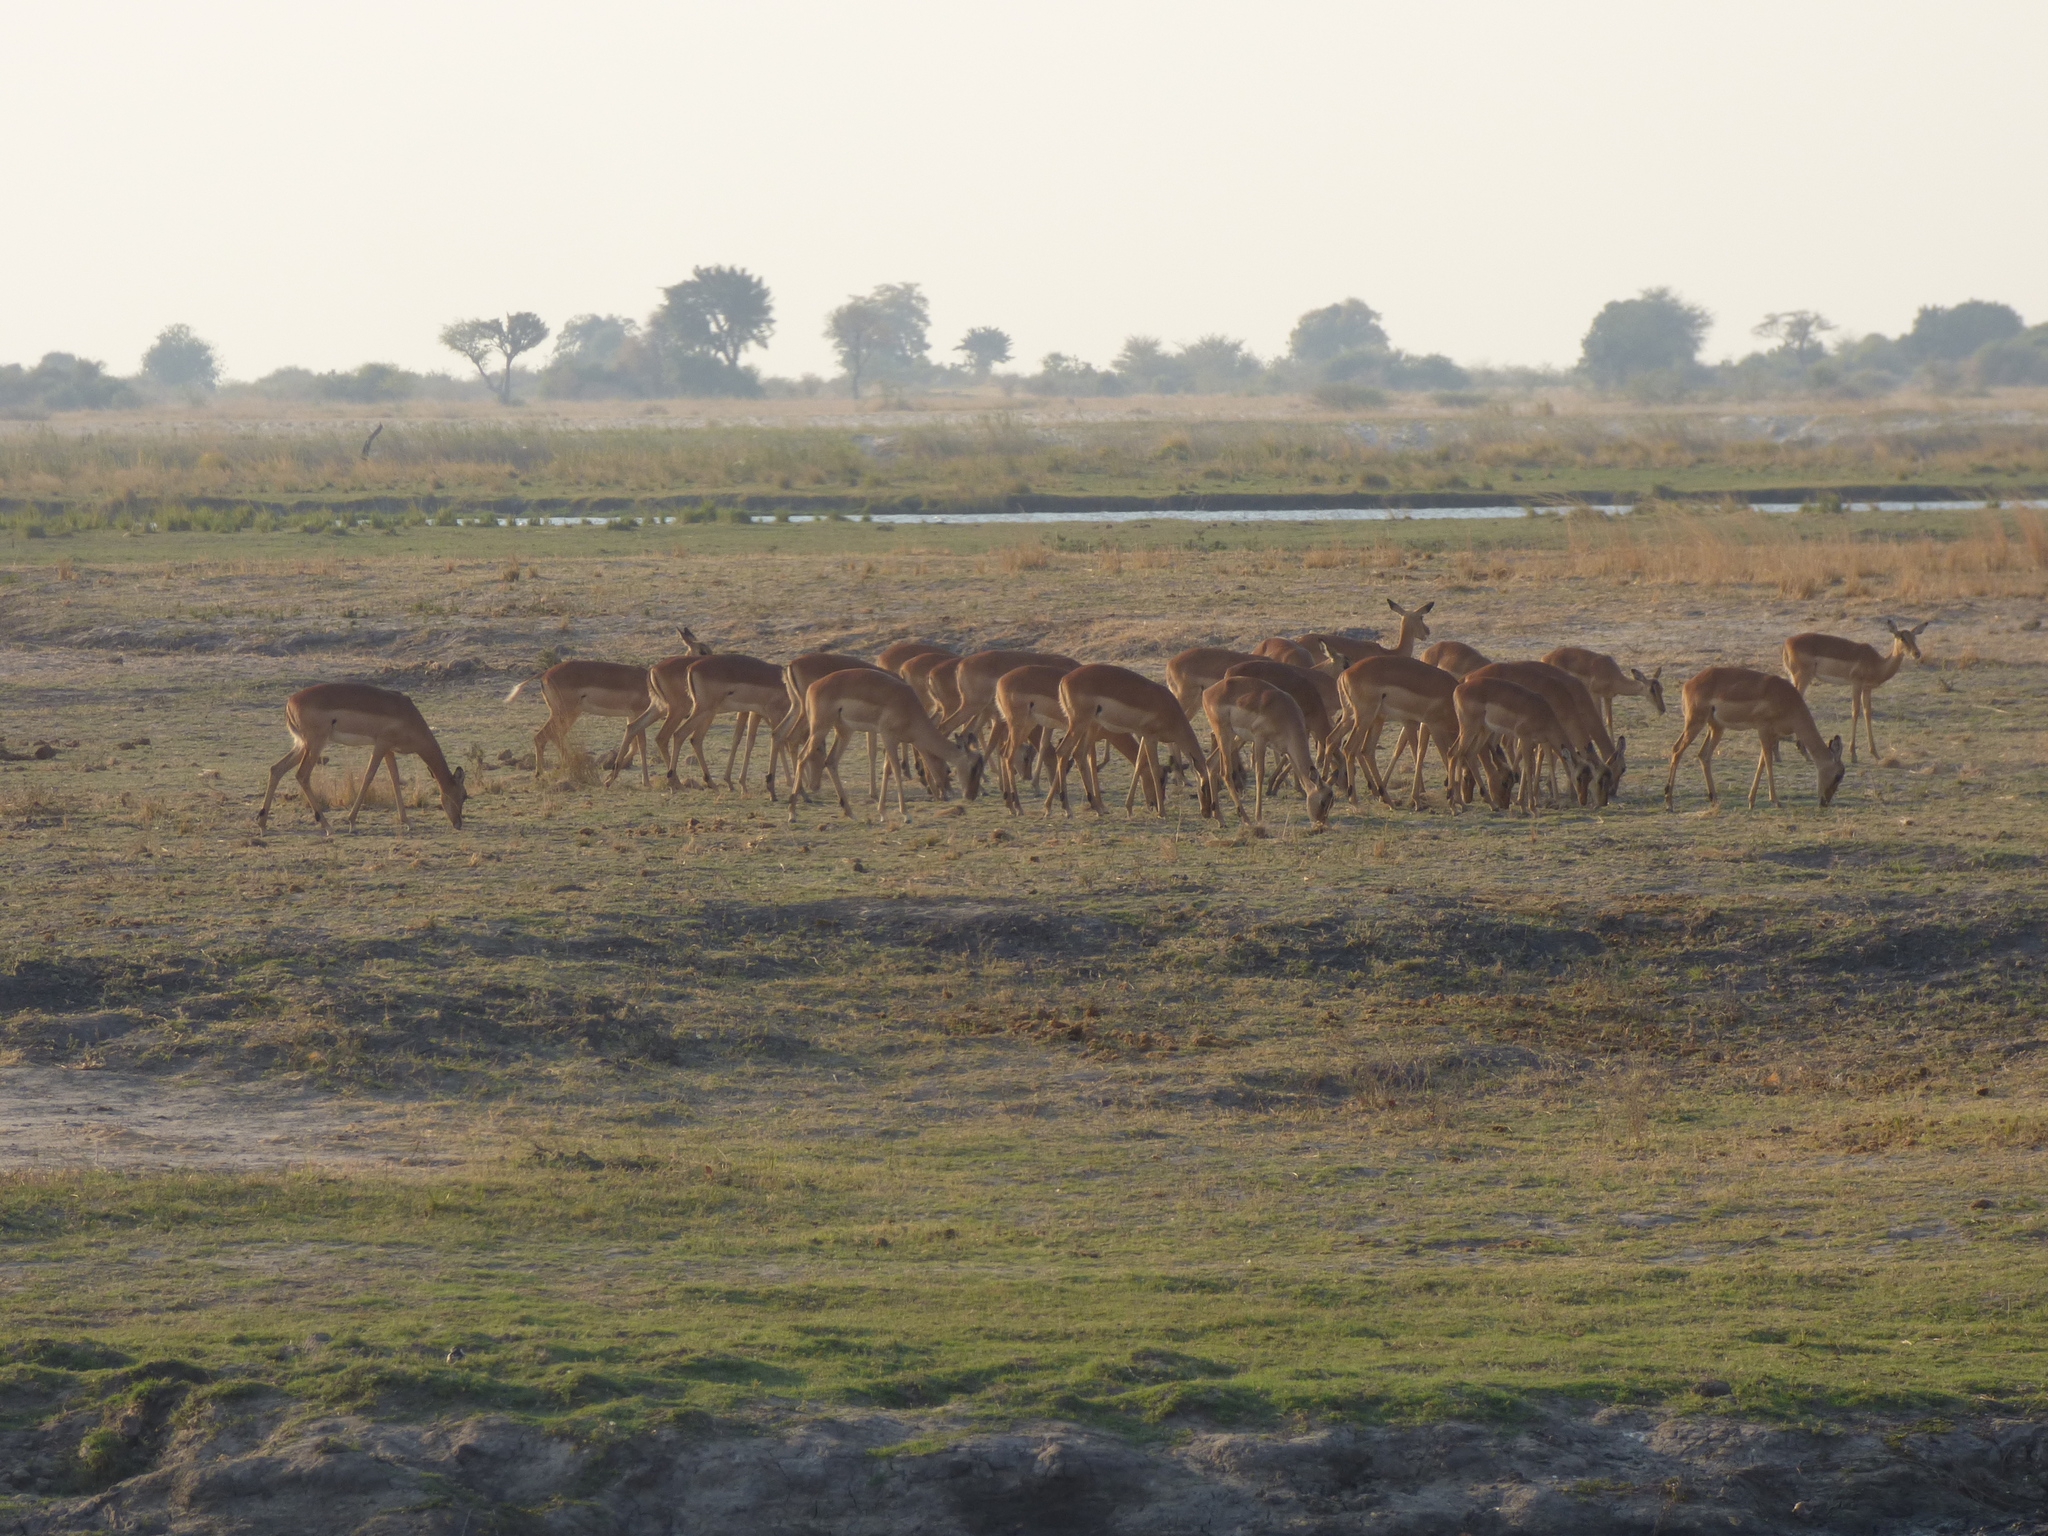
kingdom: Animalia
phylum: Chordata
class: Mammalia
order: Artiodactyla
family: Bovidae
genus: Aepyceros
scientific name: Aepyceros melampus
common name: Impala
